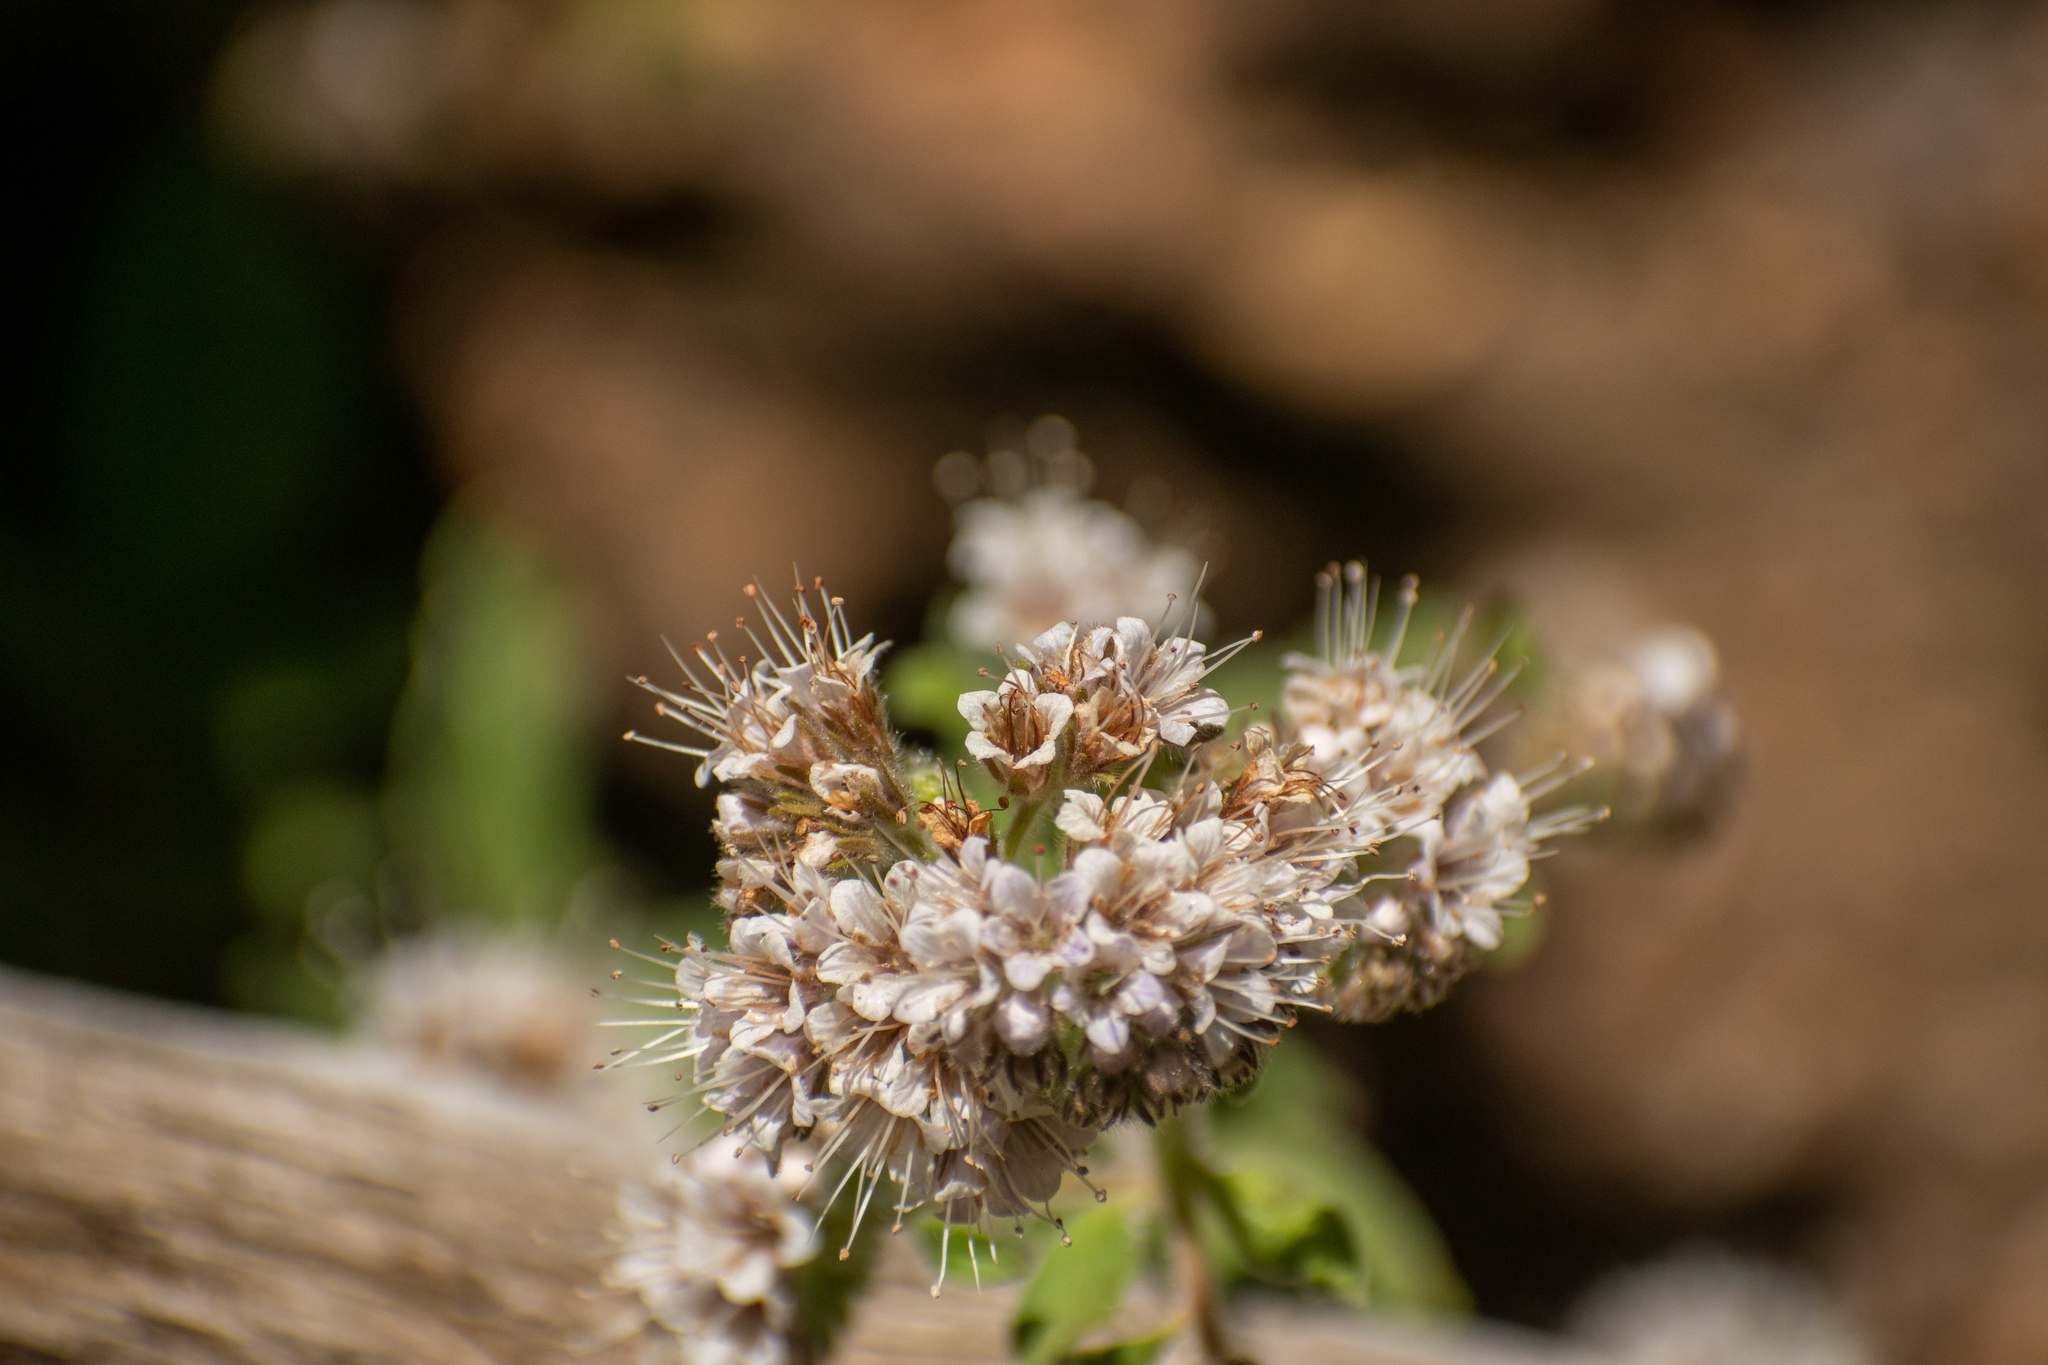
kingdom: Plantae
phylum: Tracheophyta
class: Magnoliopsida
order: Boraginales
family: Hydrophyllaceae
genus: Phacelia
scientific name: Phacelia secunda
